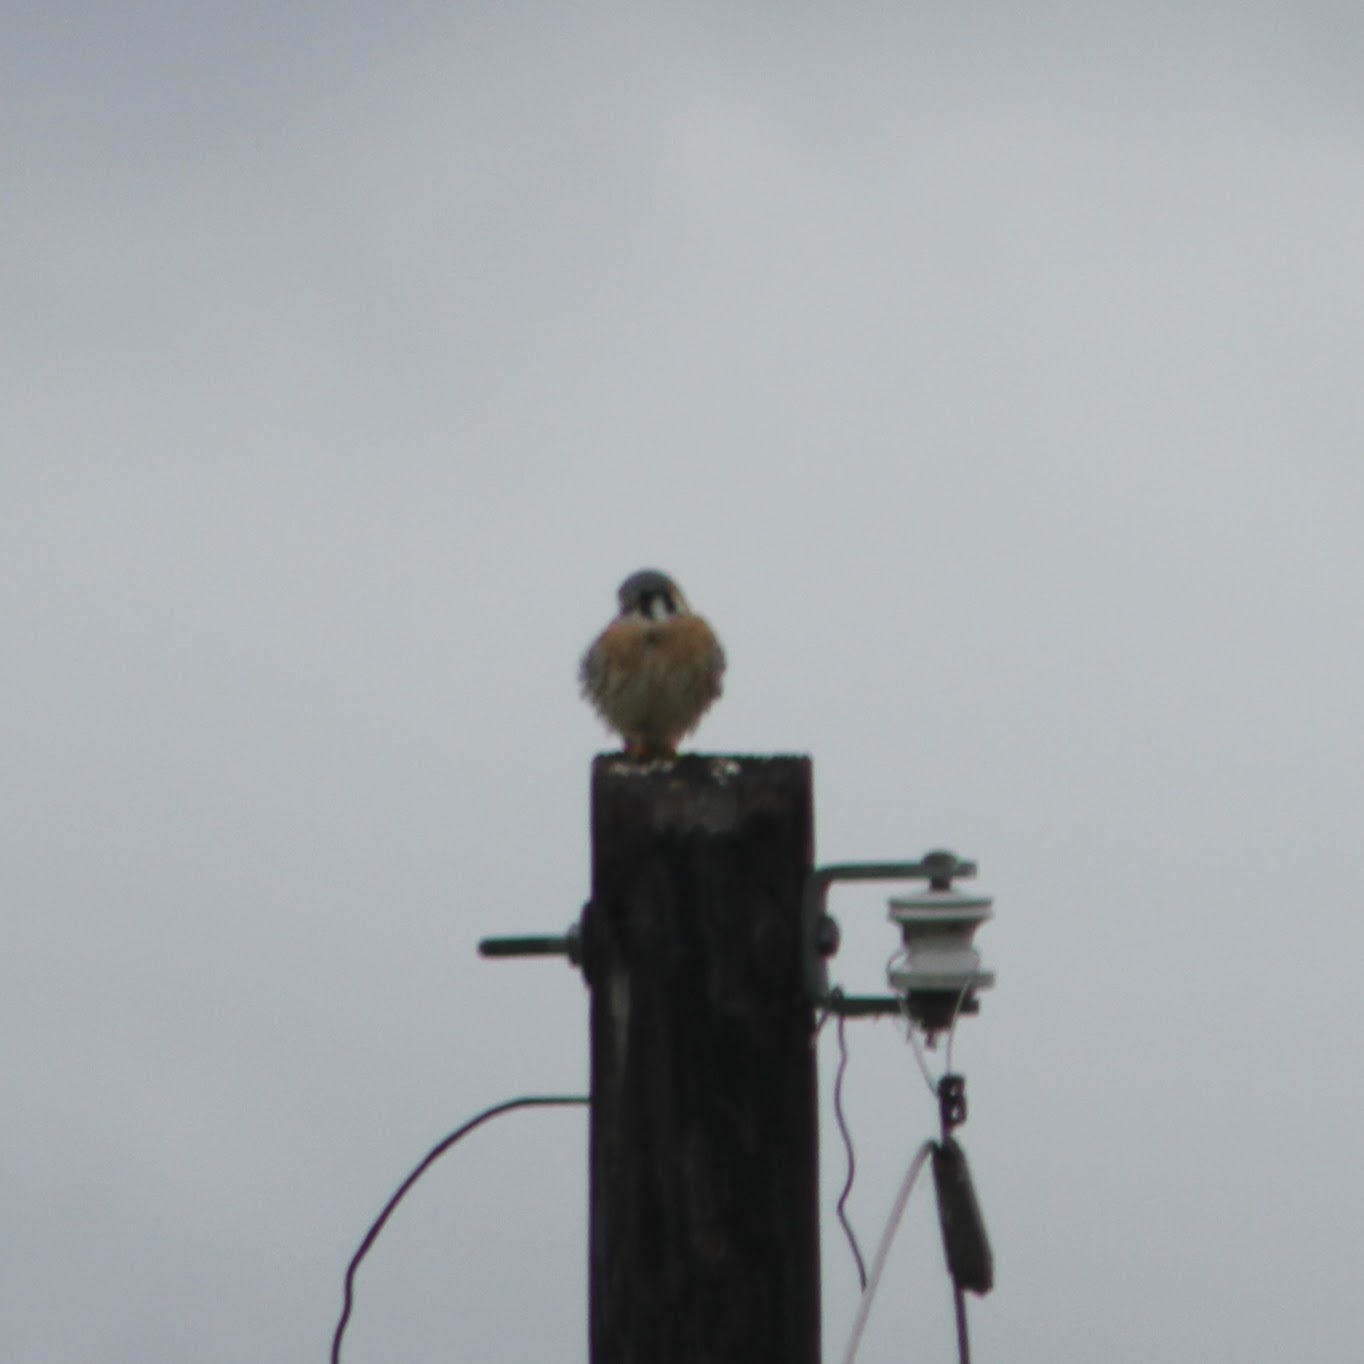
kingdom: Animalia
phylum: Chordata
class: Aves
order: Falconiformes
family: Falconidae
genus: Falco
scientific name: Falco sparverius
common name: American kestrel
